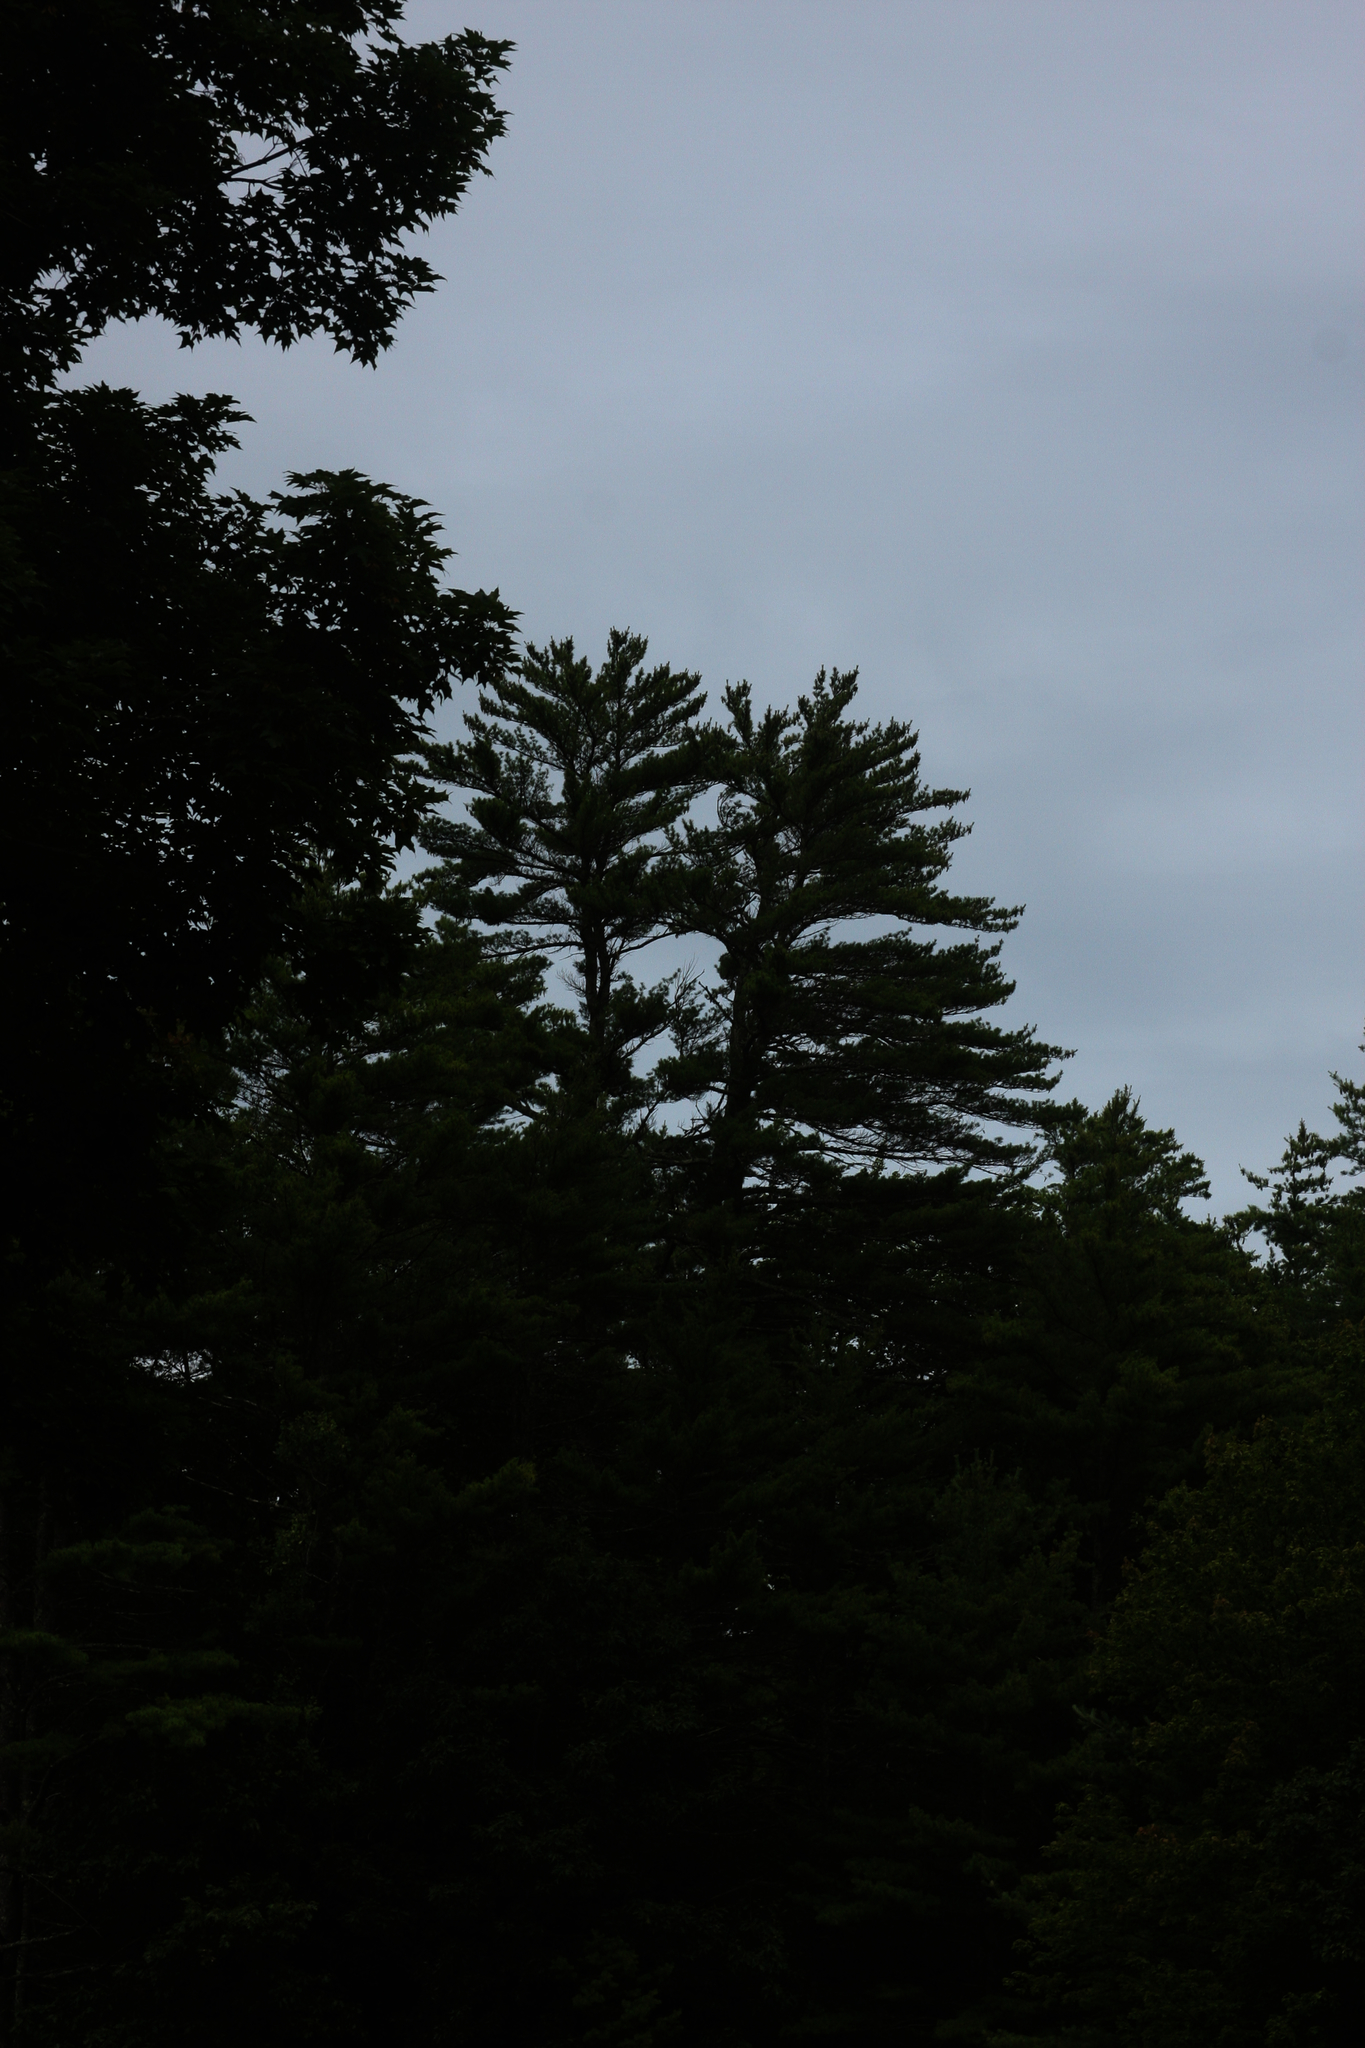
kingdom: Plantae
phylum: Tracheophyta
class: Pinopsida
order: Pinales
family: Pinaceae
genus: Pinus
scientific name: Pinus strobus
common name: Weymouth pine
